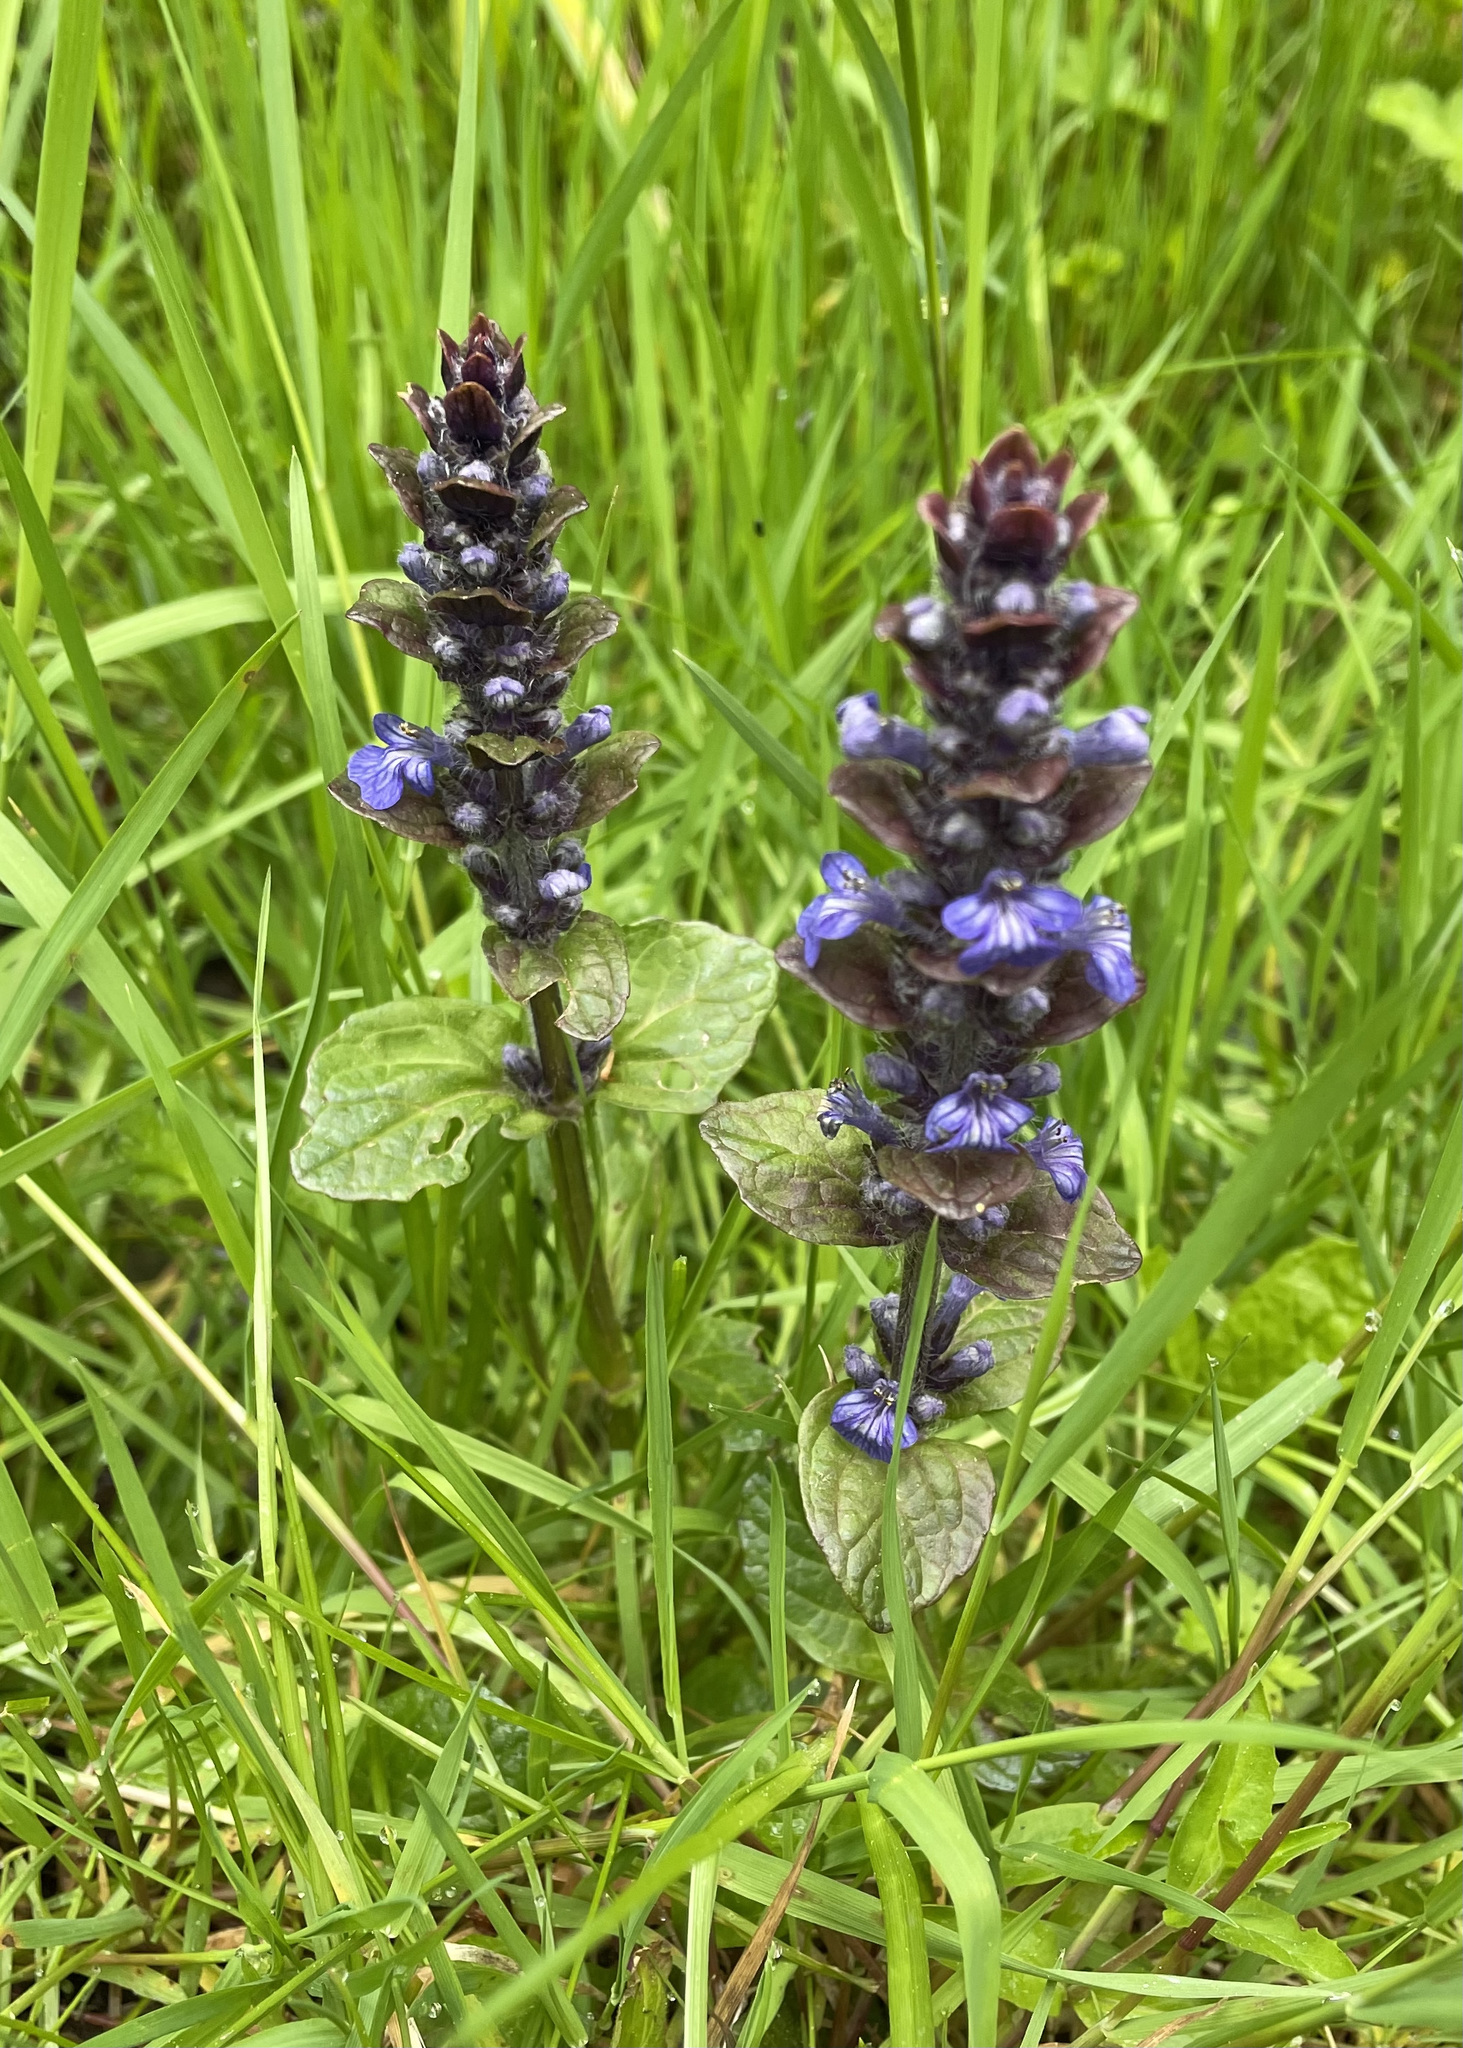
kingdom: Plantae
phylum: Tracheophyta
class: Magnoliopsida
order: Lamiales
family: Lamiaceae
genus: Ajuga
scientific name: Ajuga reptans
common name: Bugle
